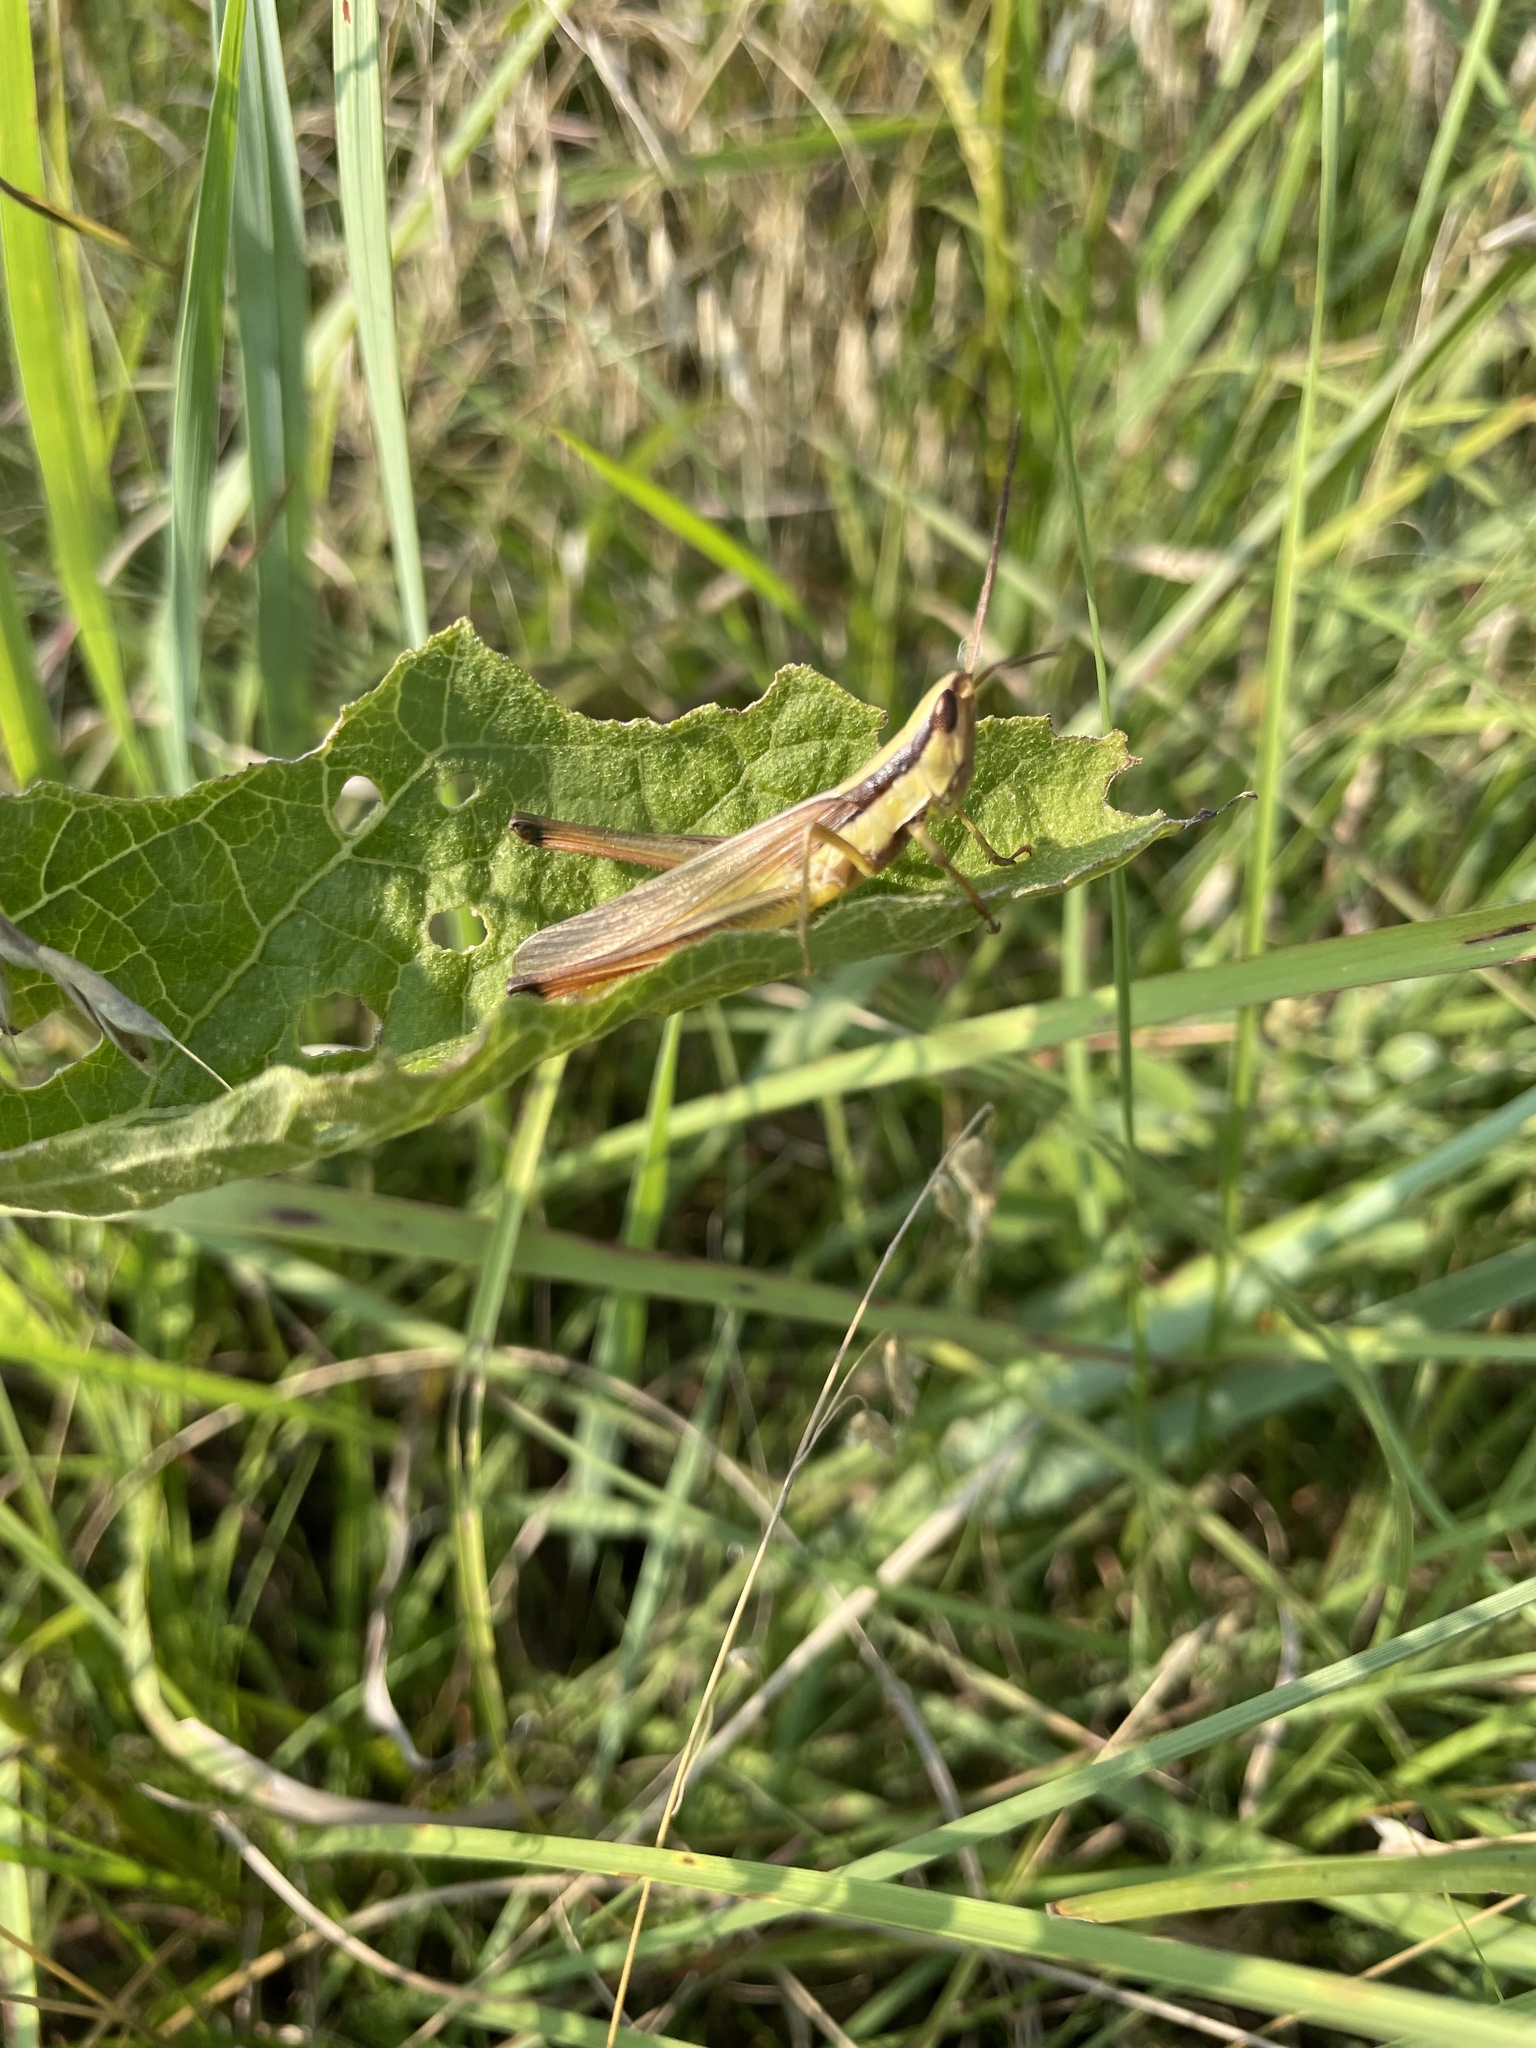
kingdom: Animalia
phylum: Arthropoda
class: Insecta
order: Orthoptera
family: Acrididae
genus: Mermiria
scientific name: Mermiria bivittata
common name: Two-striped mermiria grasshopper
